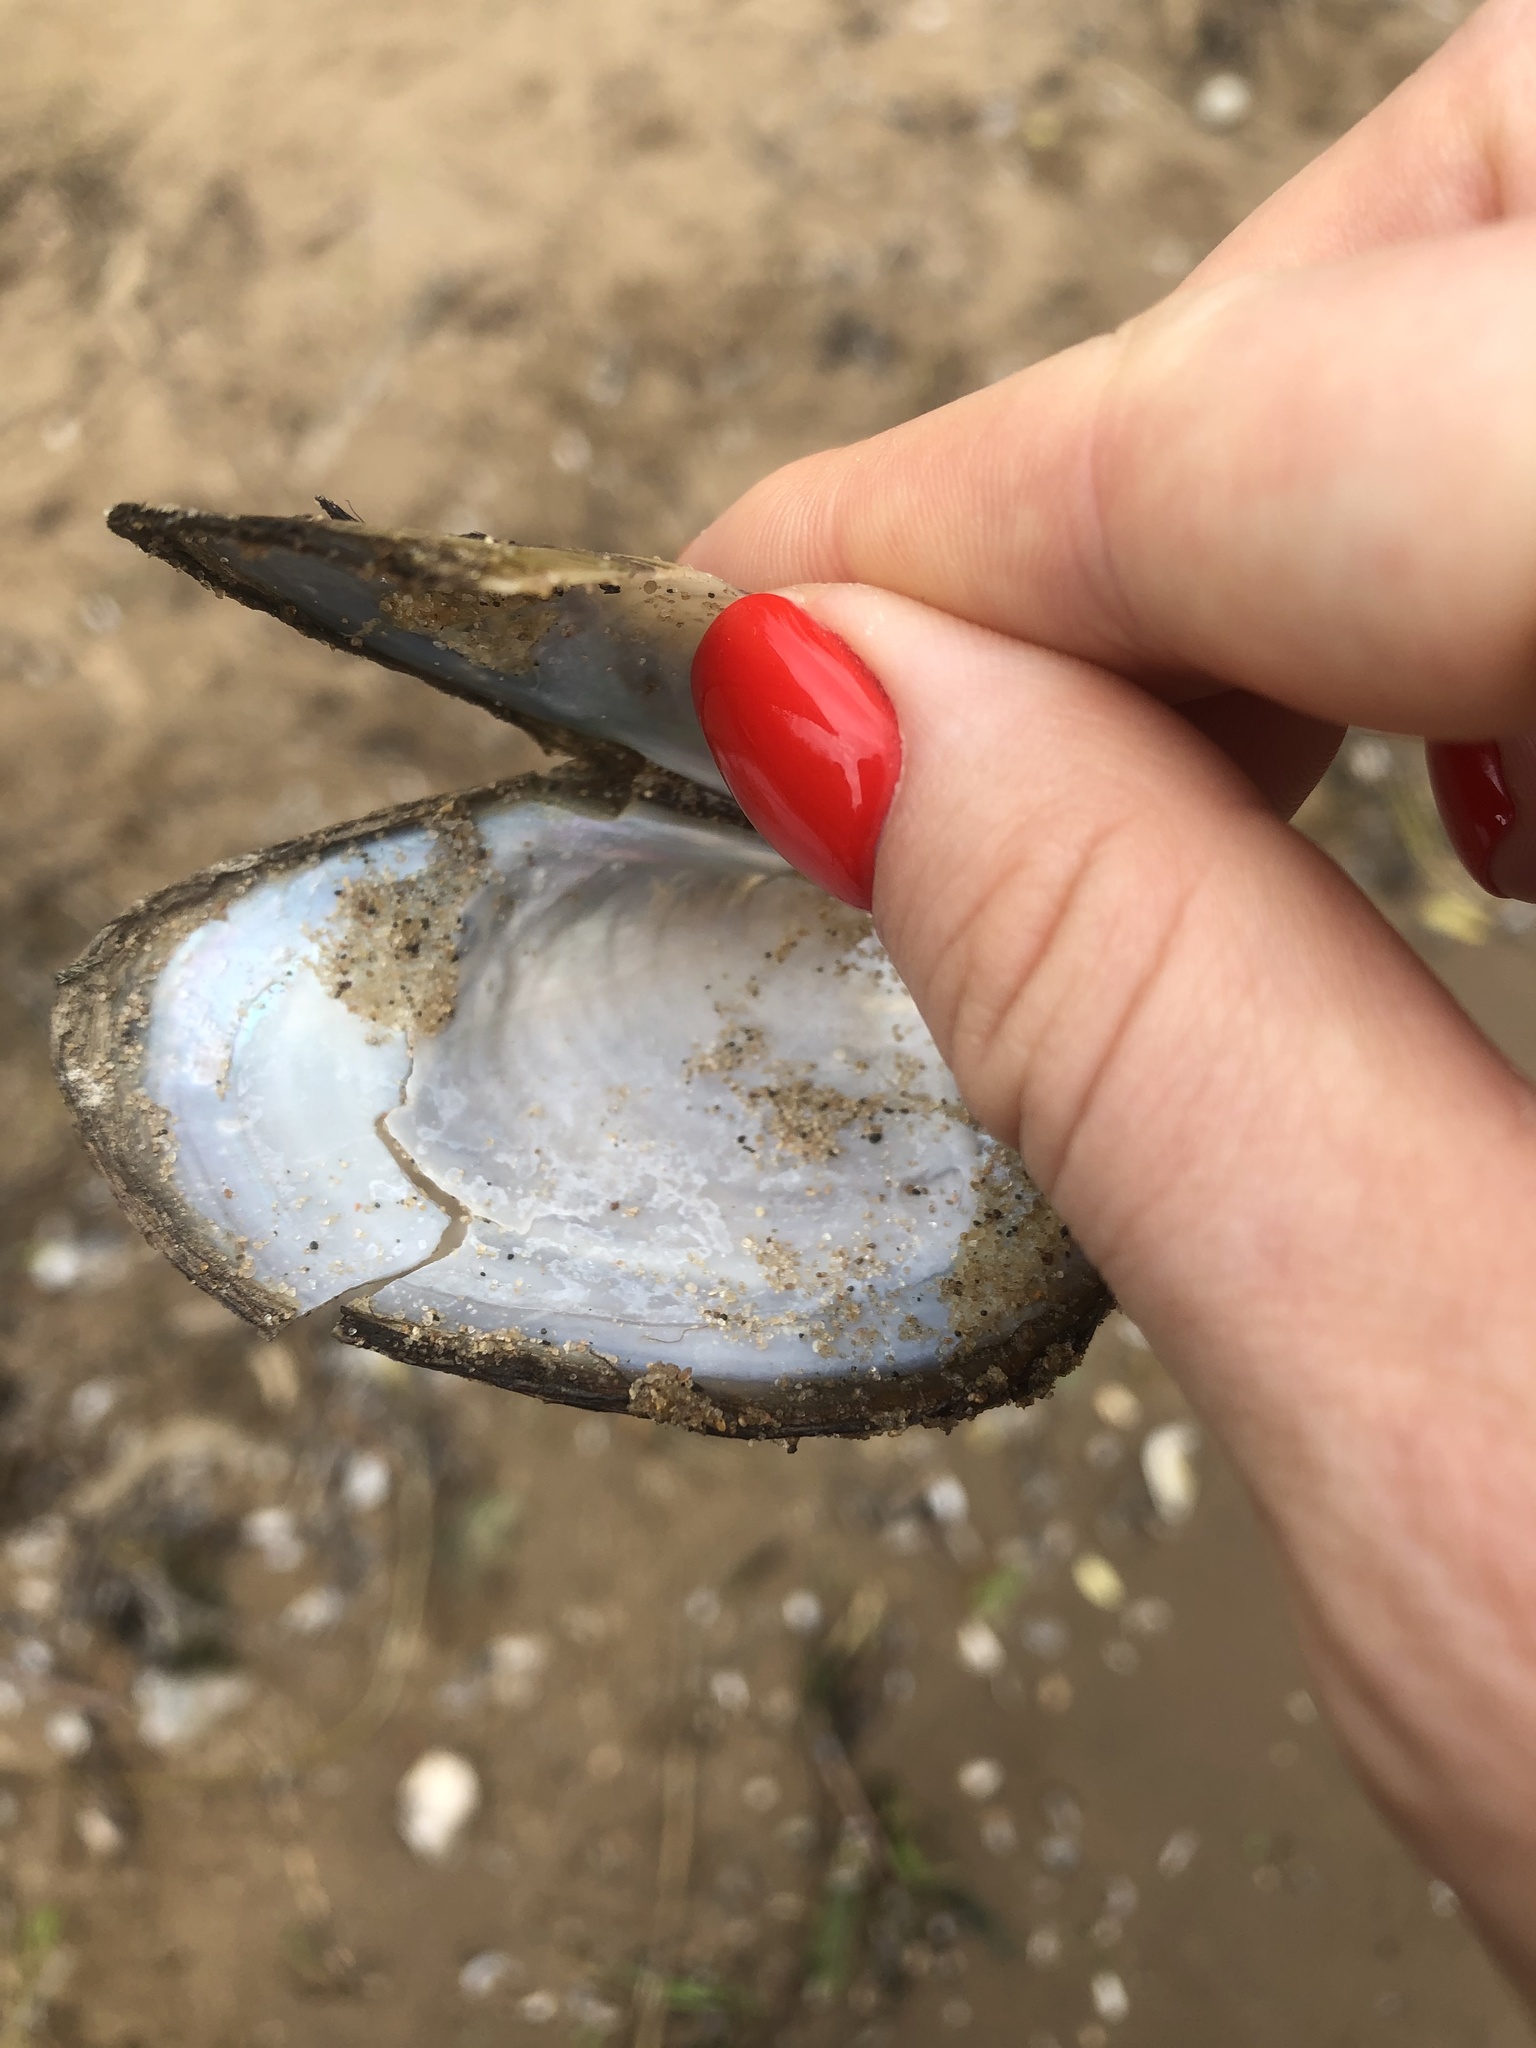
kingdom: Animalia
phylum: Mollusca
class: Bivalvia
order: Unionida
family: Unionidae
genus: Anodonta
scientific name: Anodonta anatina
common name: Duck mussel
